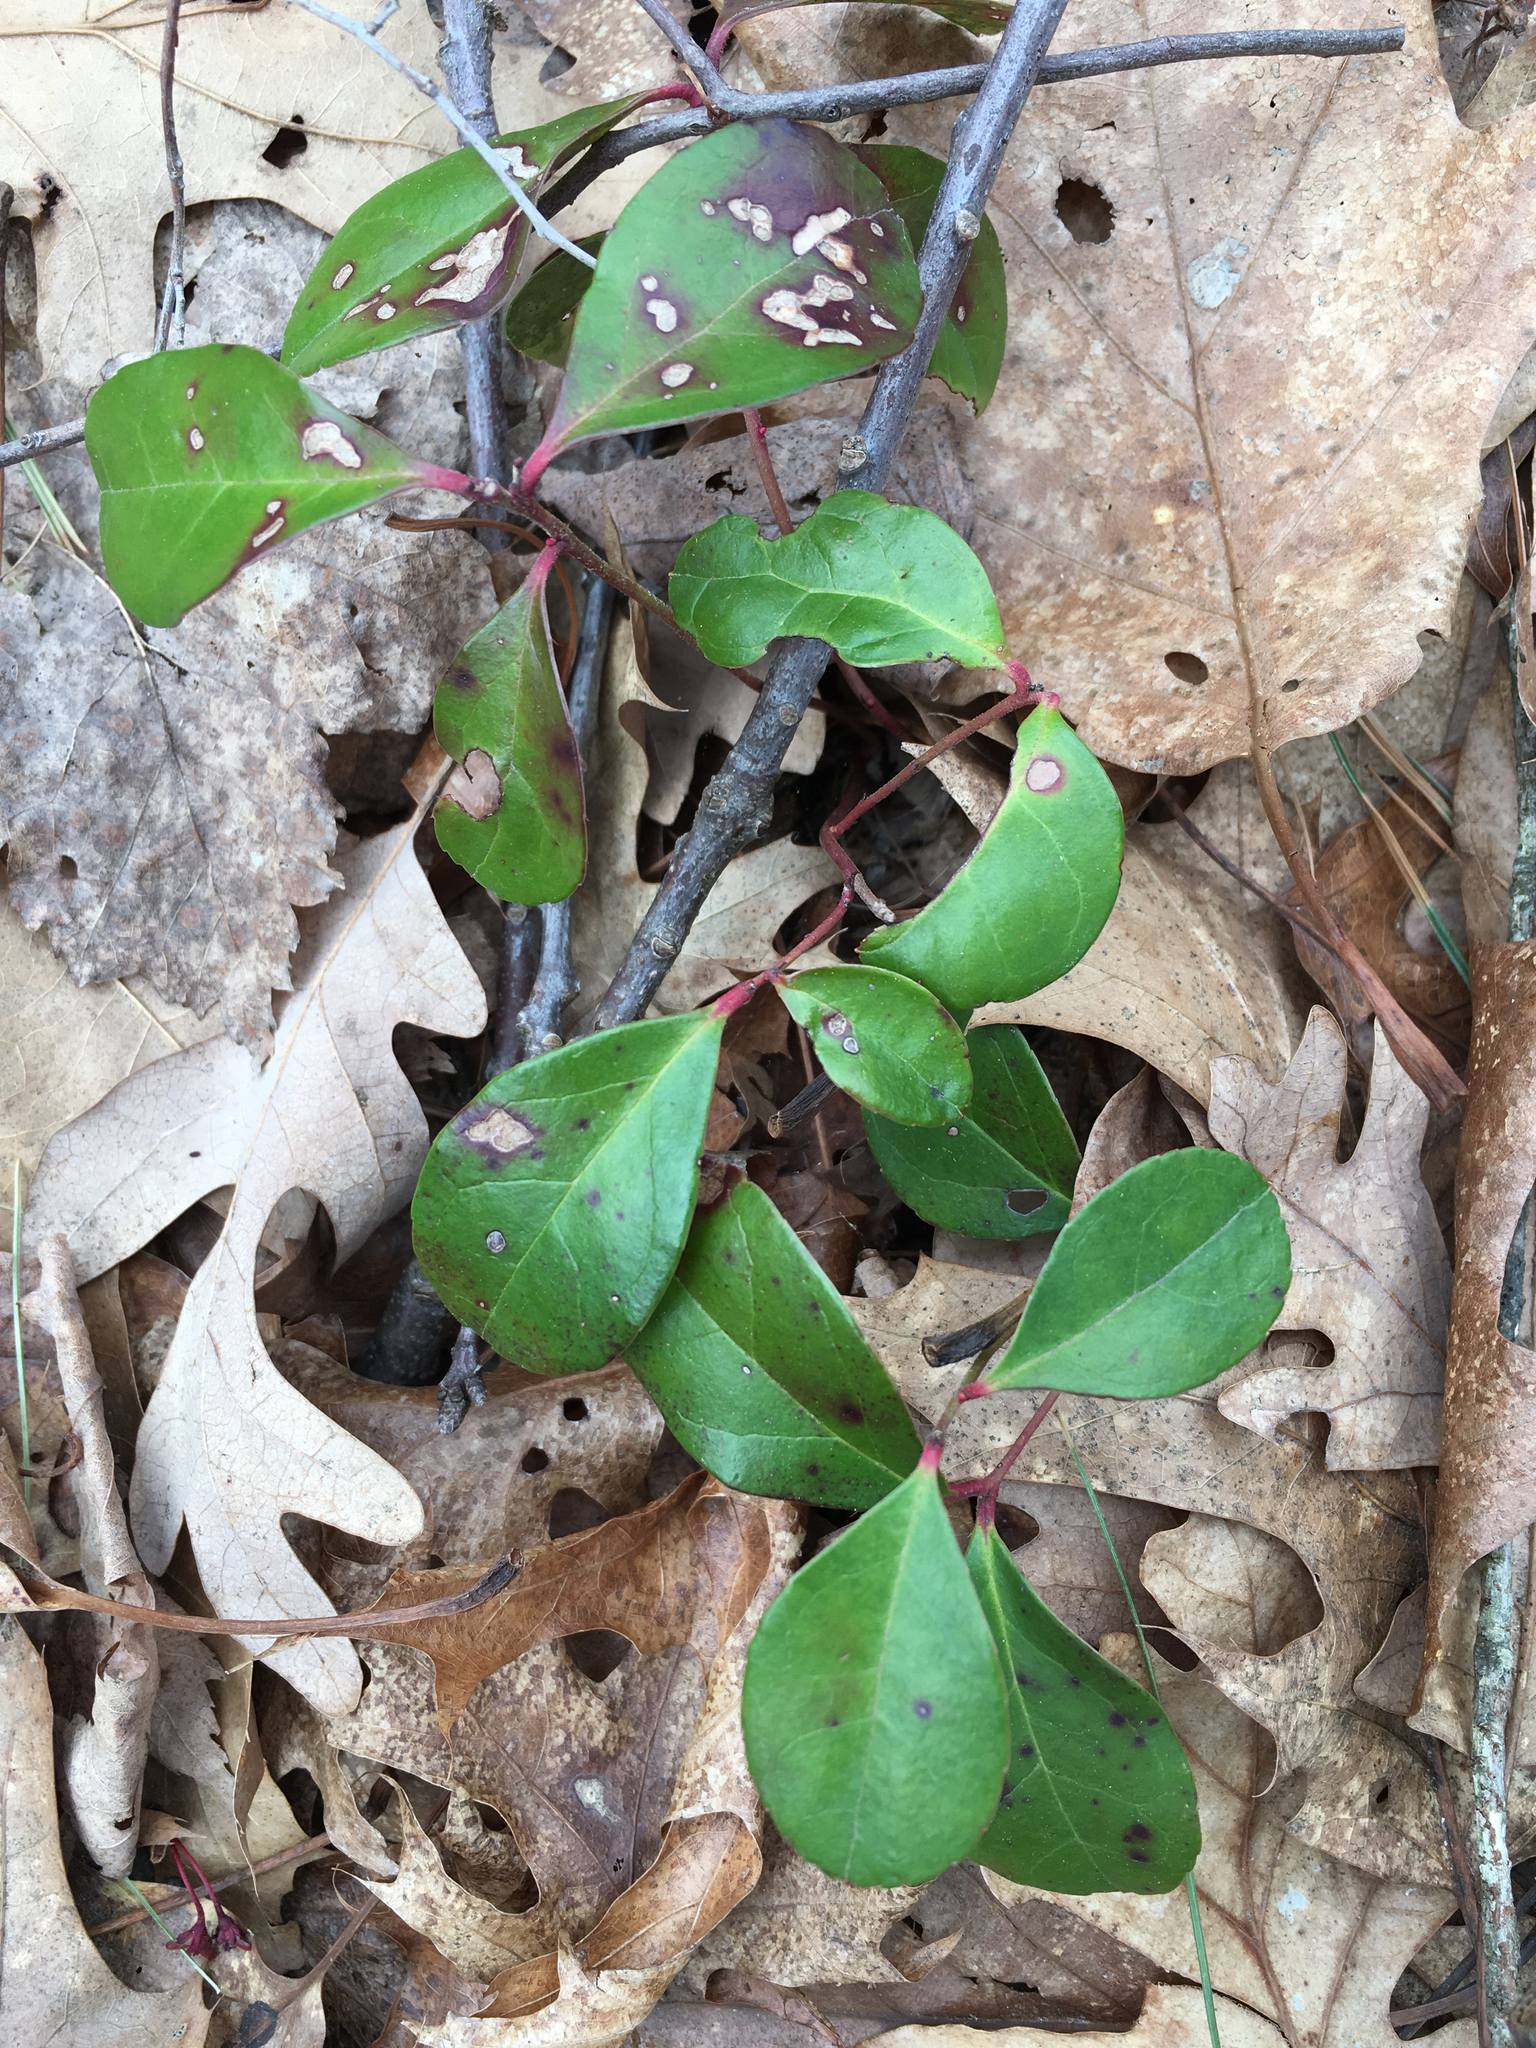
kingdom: Plantae
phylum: Tracheophyta
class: Magnoliopsida
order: Ericales
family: Ericaceae
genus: Gaultheria
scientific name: Gaultheria procumbens
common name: Checkerberry
